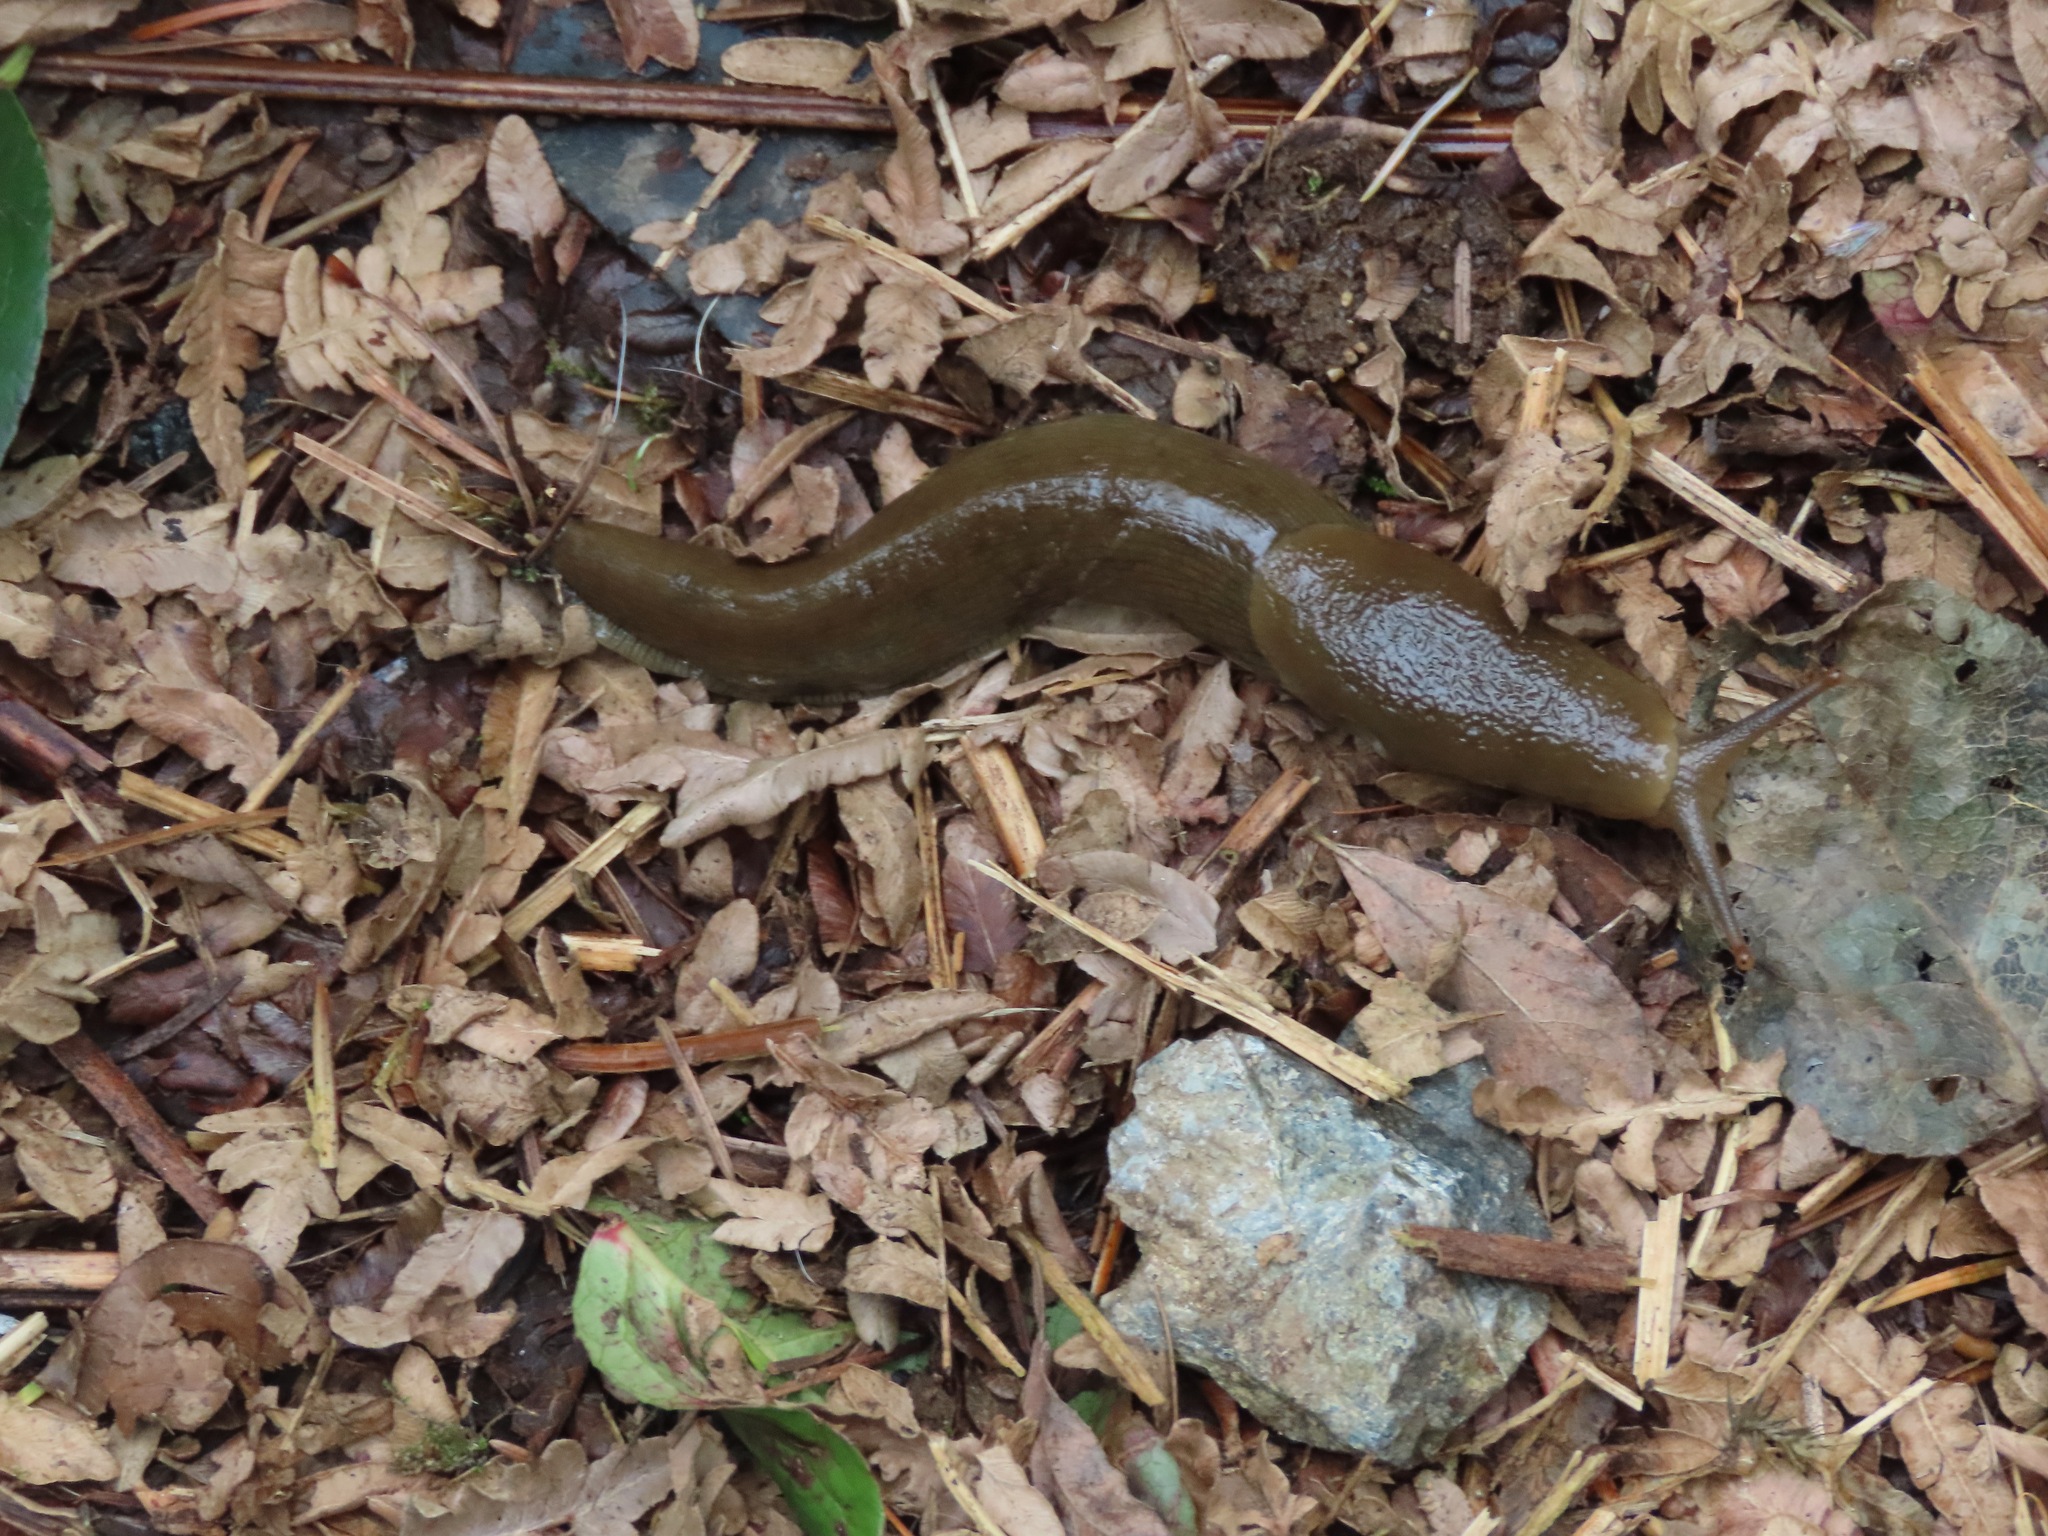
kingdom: Animalia
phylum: Mollusca
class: Gastropoda
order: Stylommatophora
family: Ariolimacidae
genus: Ariolimax
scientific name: Ariolimax columbianus
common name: Pacific banana slug
